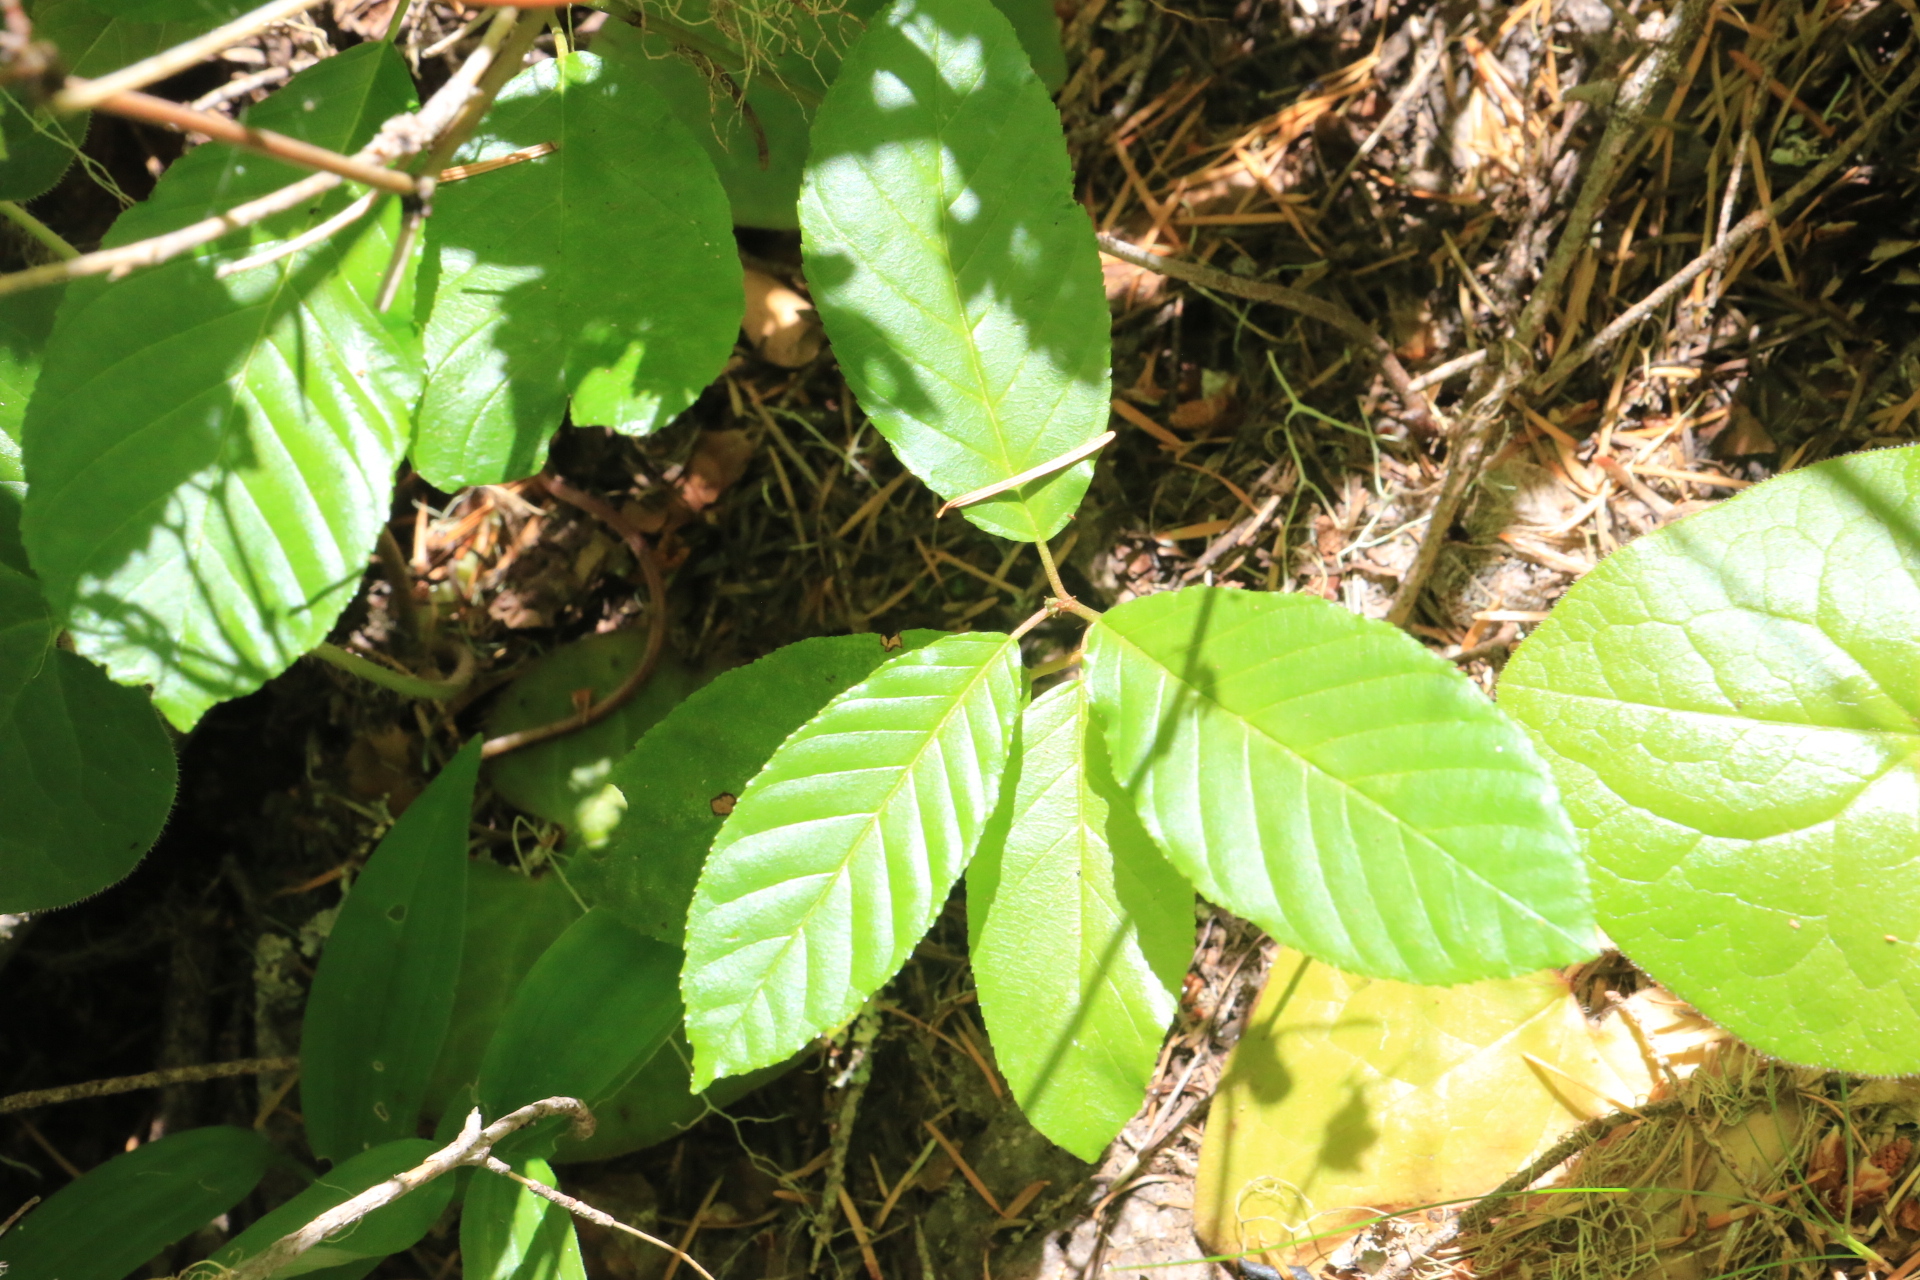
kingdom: Plantae
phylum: Tracheophyta
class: Magnoliopsida
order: Rosales
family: Rhamnaceae
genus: Frangula
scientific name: Frangula purshiana
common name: Cascara buckthorn
